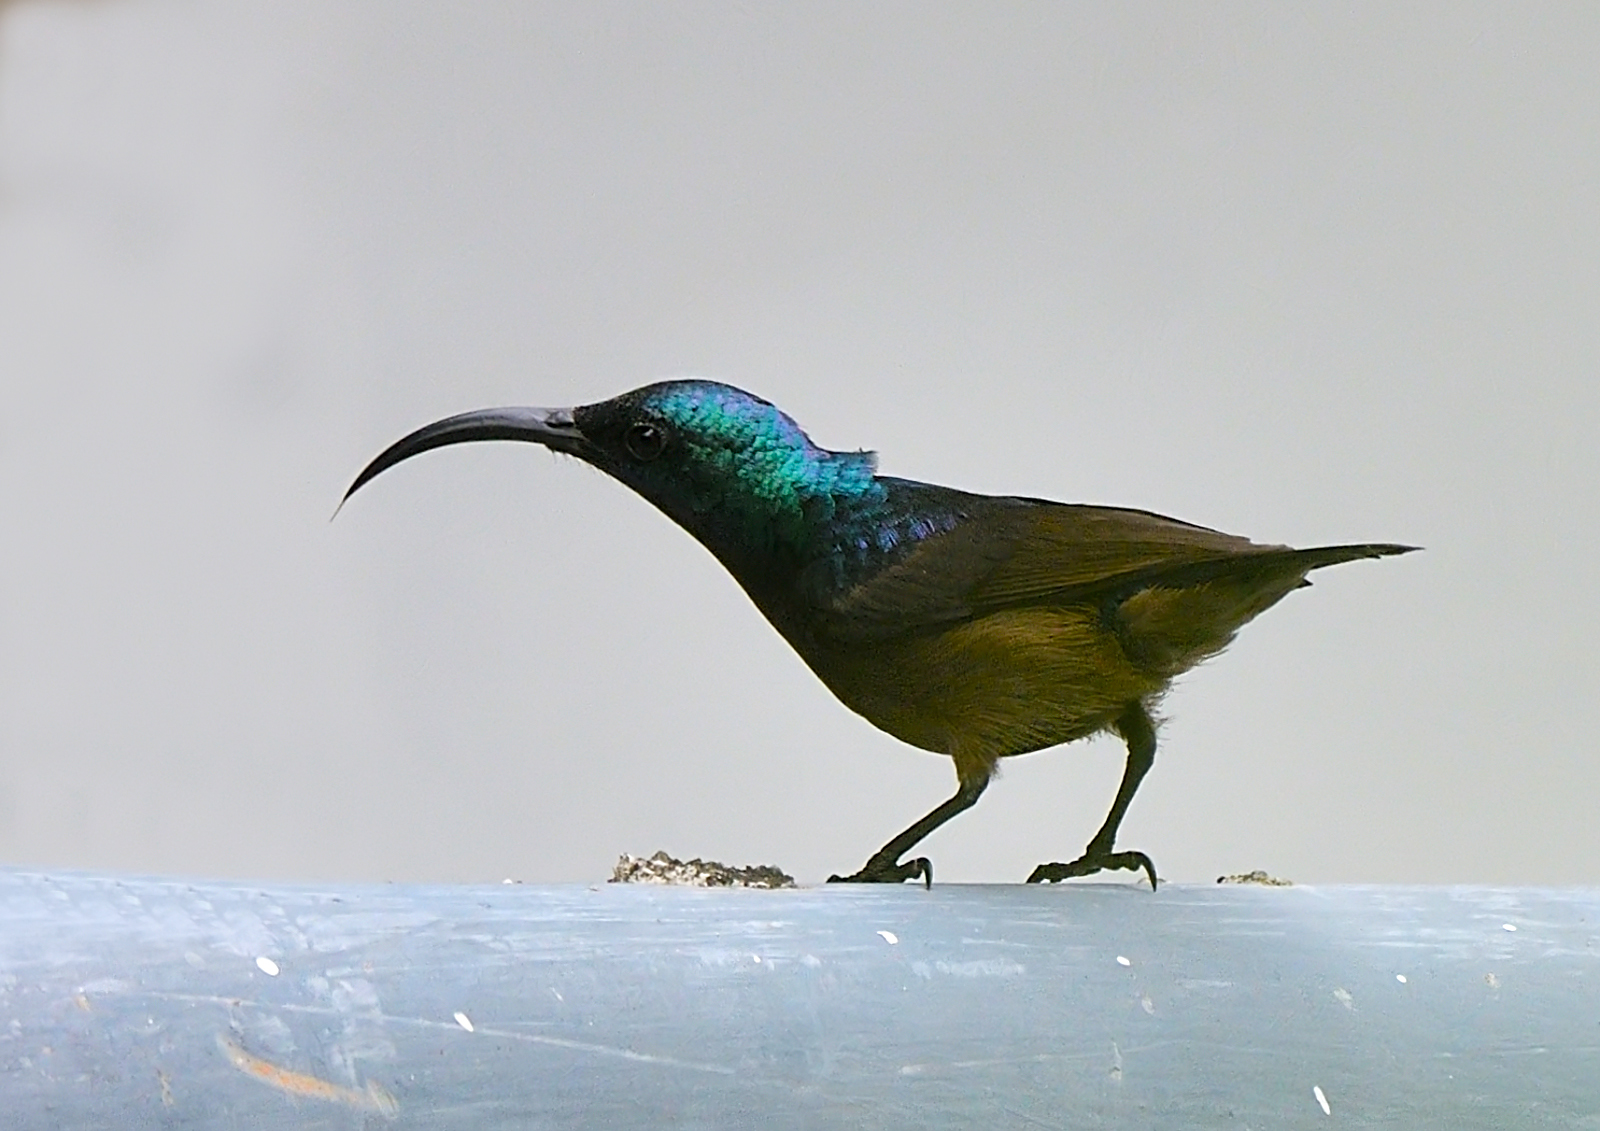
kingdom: Animalia
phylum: Chordata
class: Aves
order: Passeriformes
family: Nectariniidae
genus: Cinnyris
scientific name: Cinnyris lotenius
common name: Loten's sunbird
